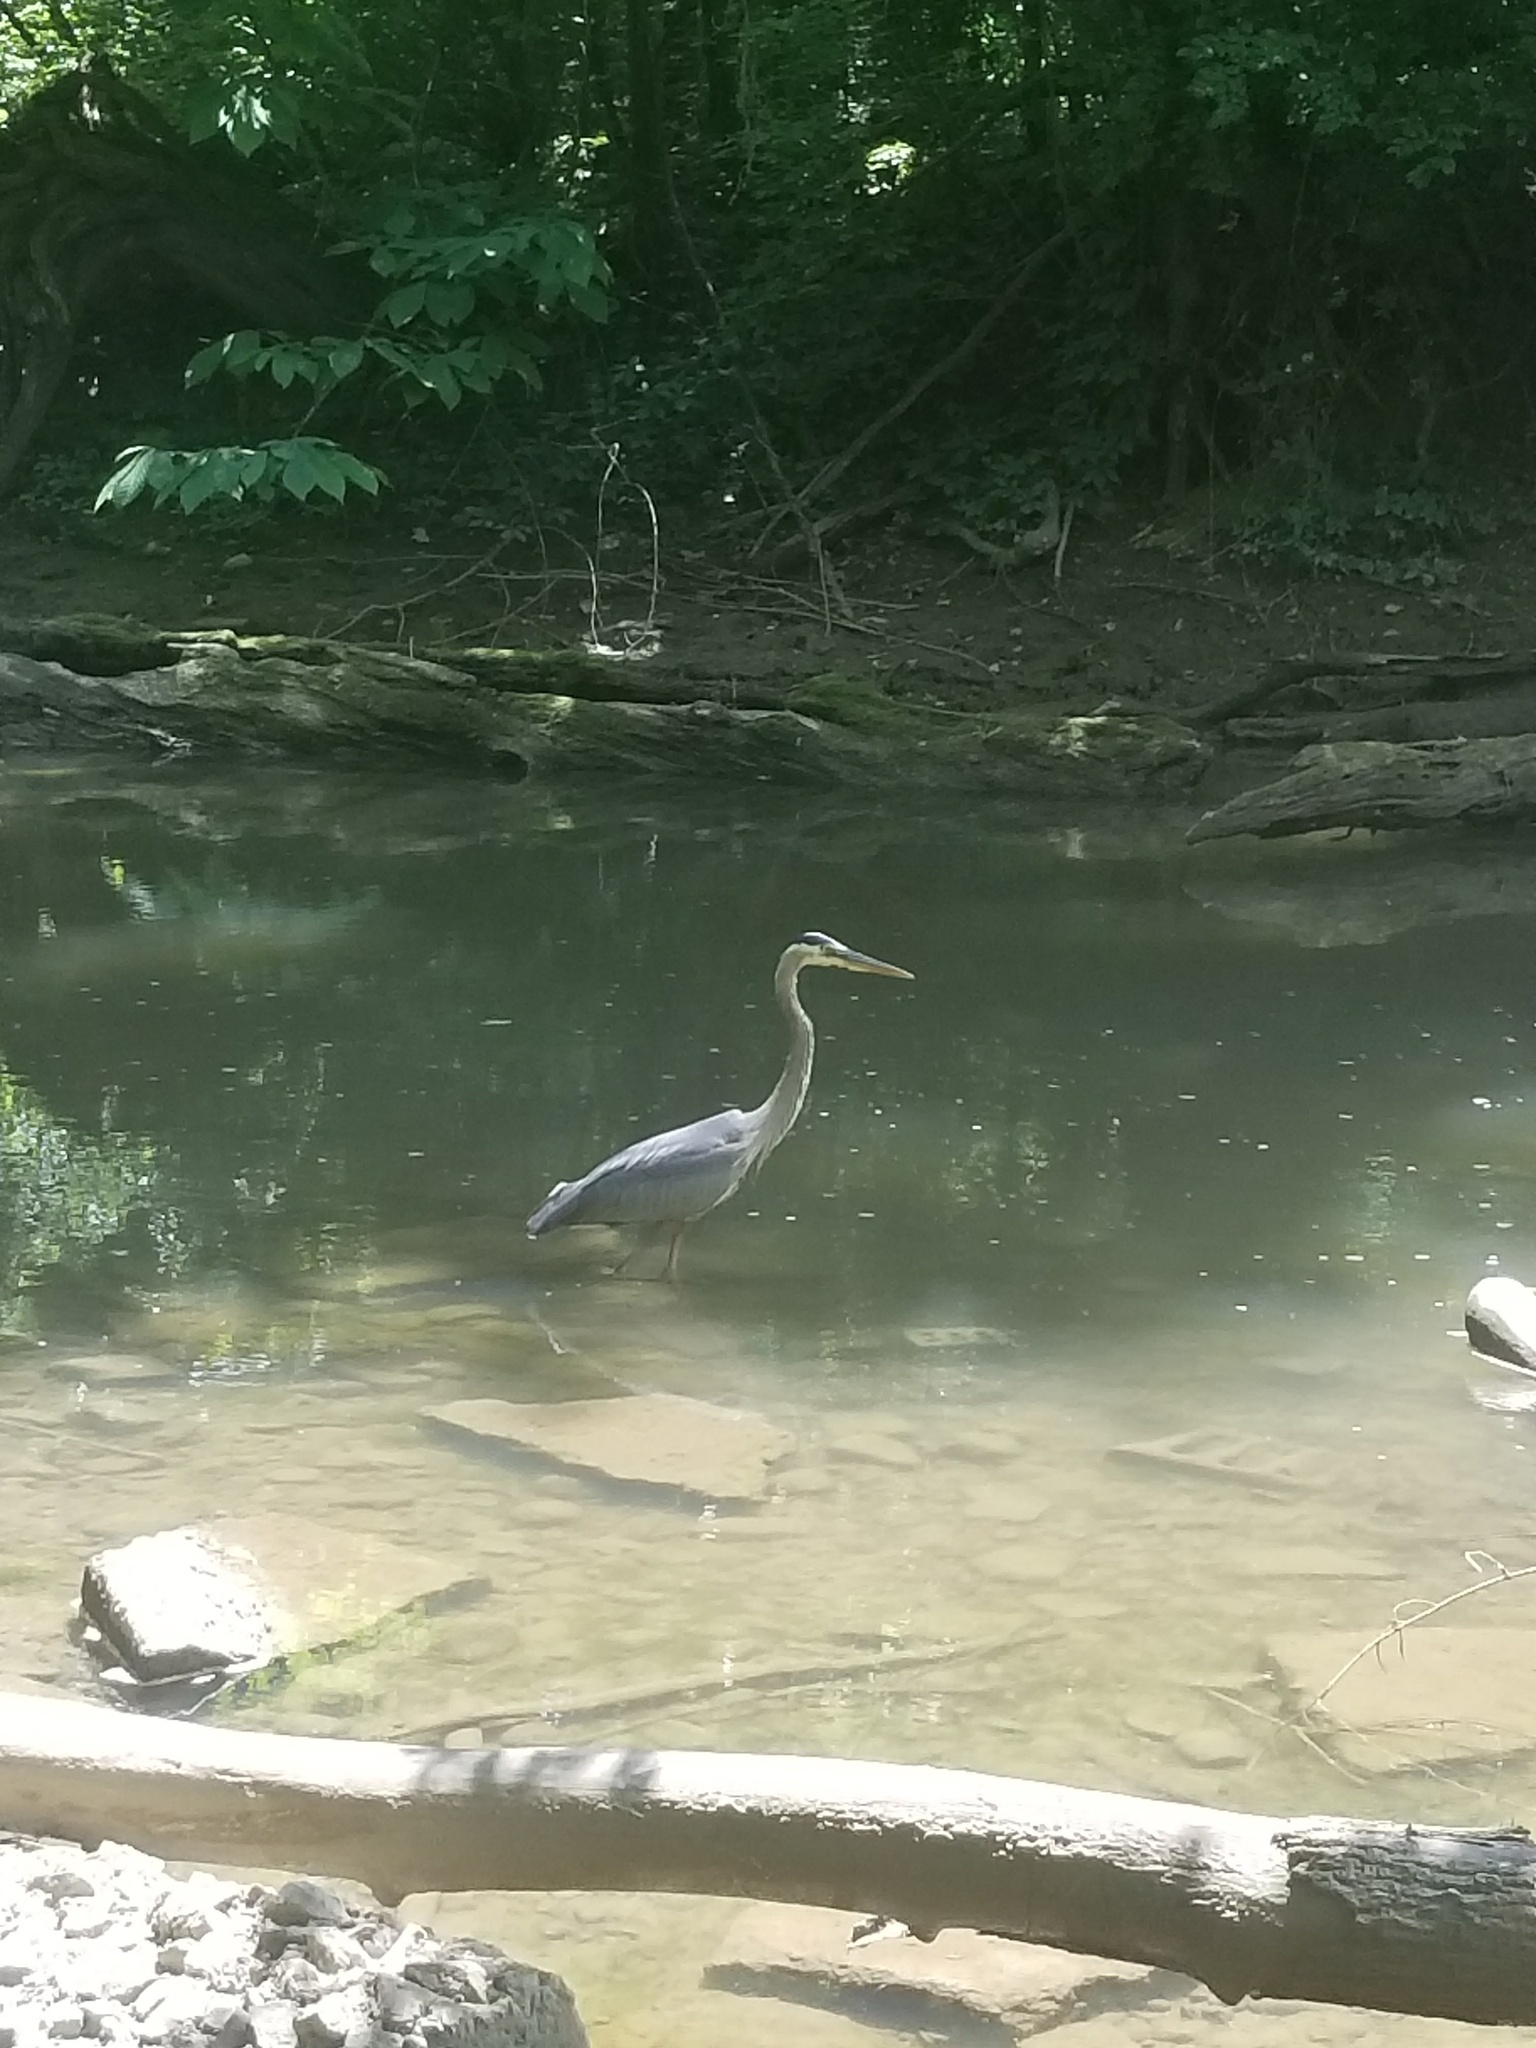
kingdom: Animalia
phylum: Chordata
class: Aves
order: Pelecaniformes
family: Ardeidae
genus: Ardea
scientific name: Ardea herodias
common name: Great blue heron
